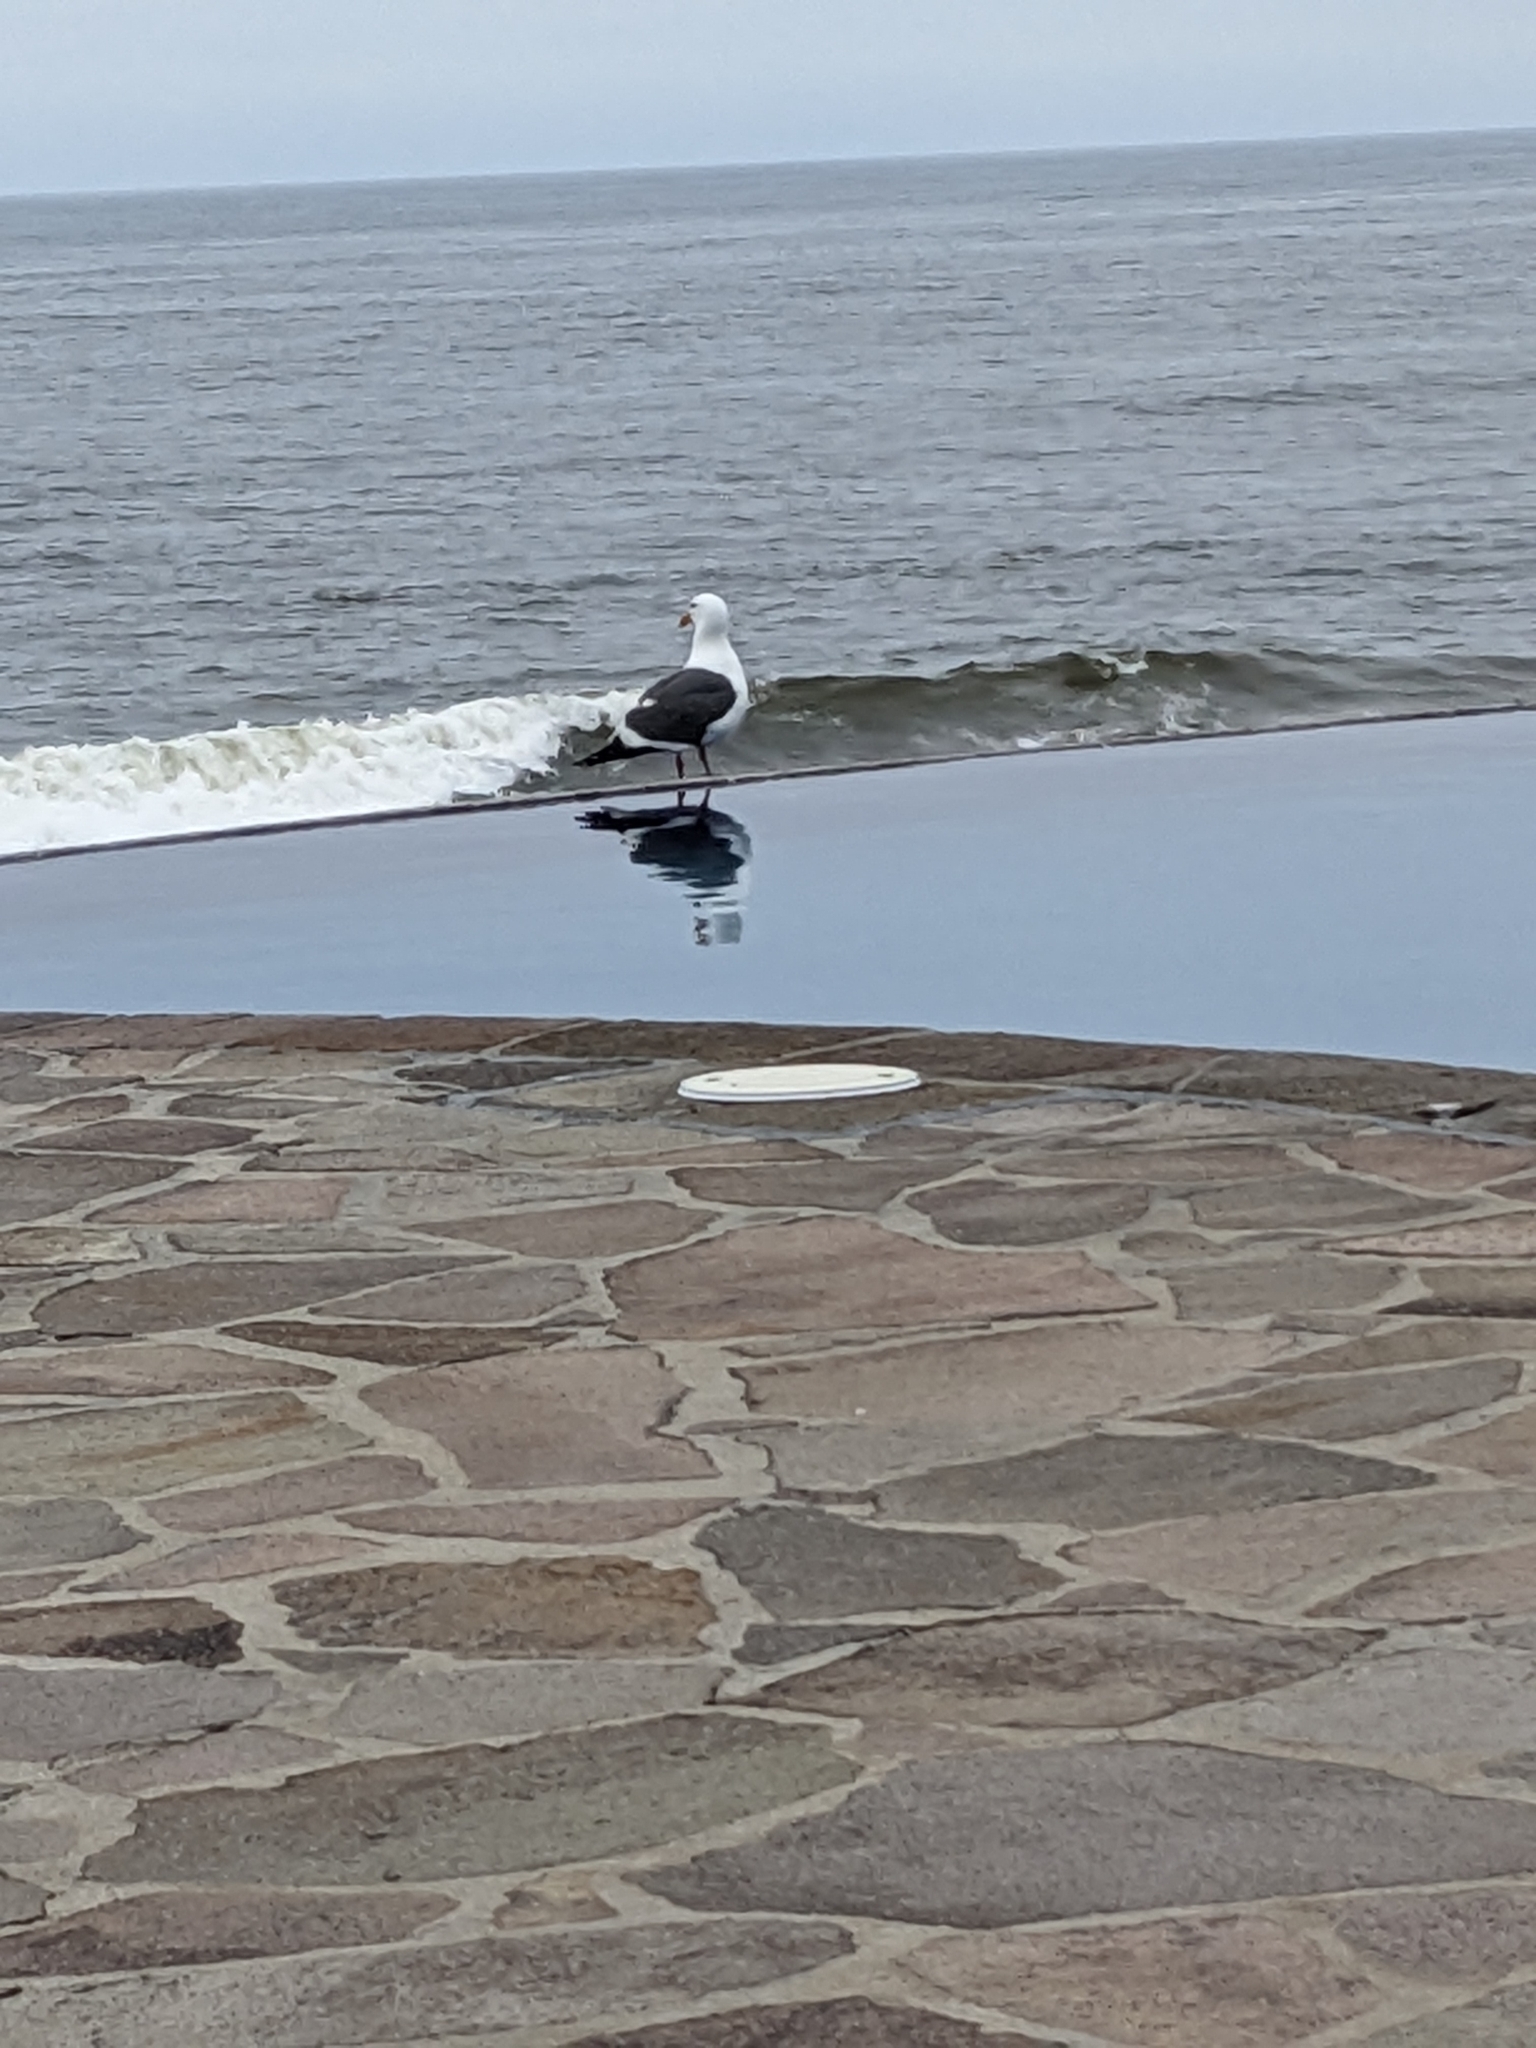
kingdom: Animalia
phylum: Chordata
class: Aves
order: Charadriiformes
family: Laridae
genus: Larus
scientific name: Larus occidentalis
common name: Western gull
